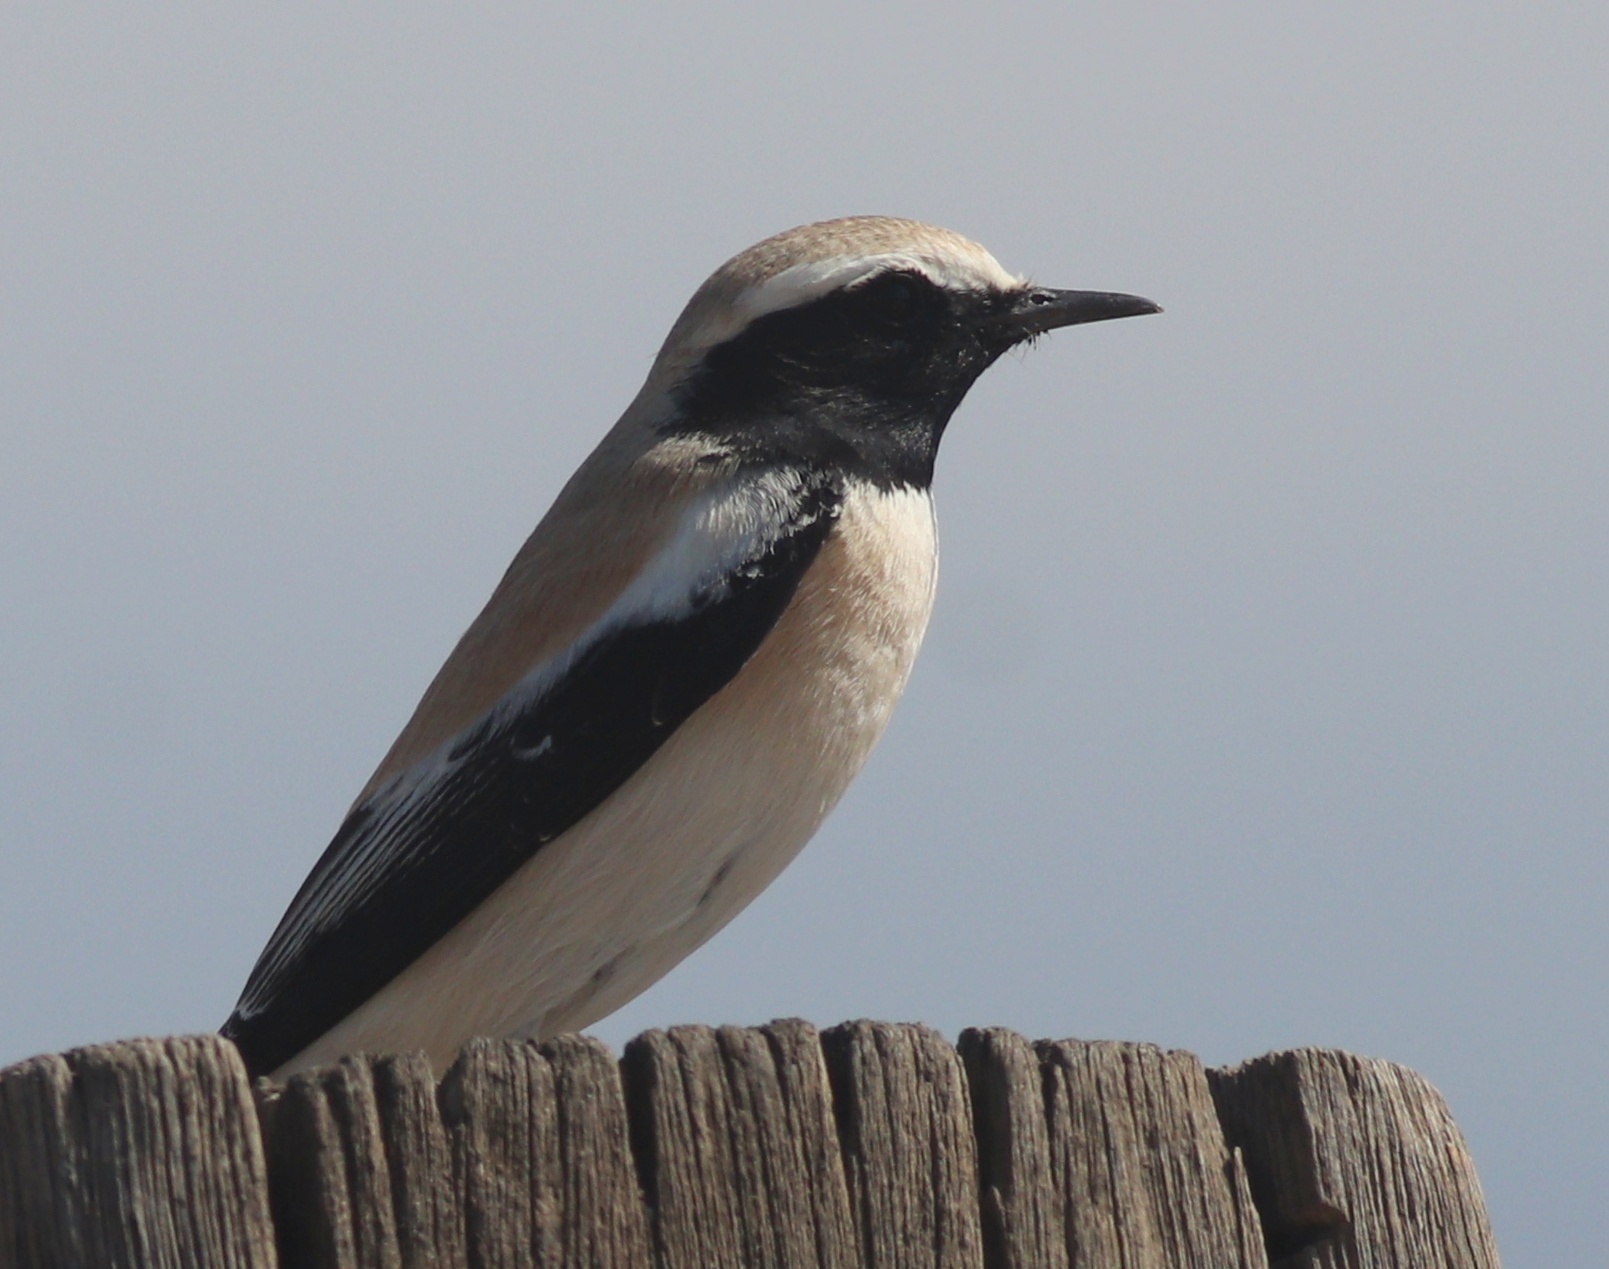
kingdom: Animalia
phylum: Chordata
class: Aves
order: Passeriformes
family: Muscicapidae
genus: Oenanthe
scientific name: Oenanthe deserti
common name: Desert wheatear
